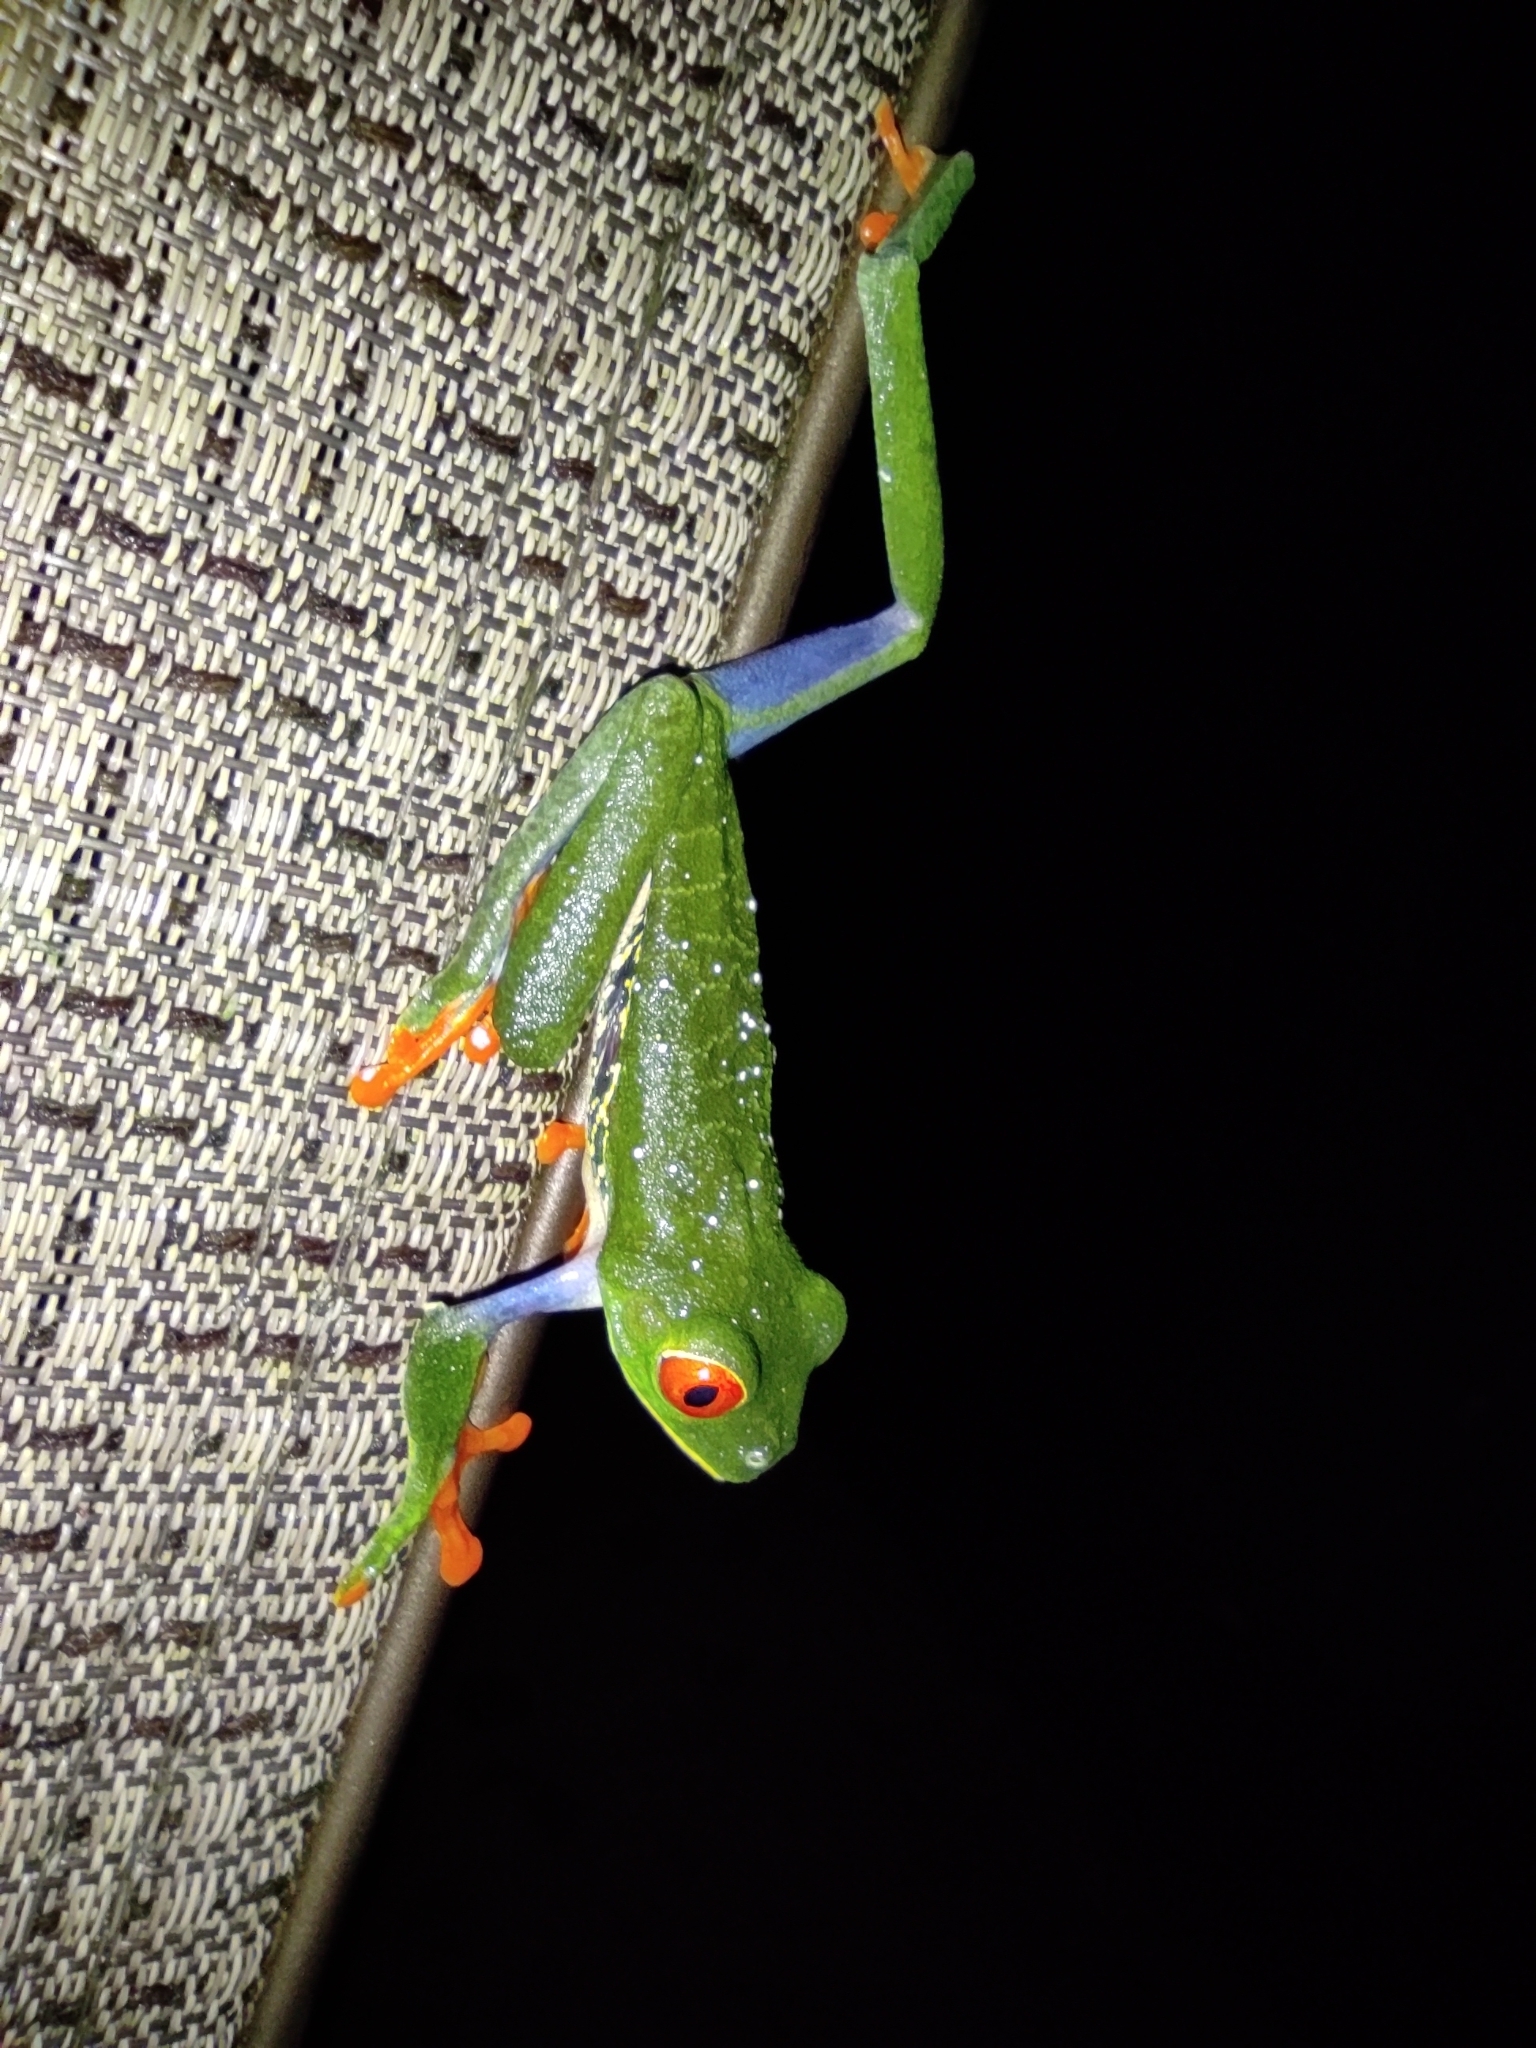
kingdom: Animalia
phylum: Chordata
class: Amphibia
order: Anura
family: Phyllomedusidae
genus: Agalychnis
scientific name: Agalychnis callidryas
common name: Red-eyed treefrog
